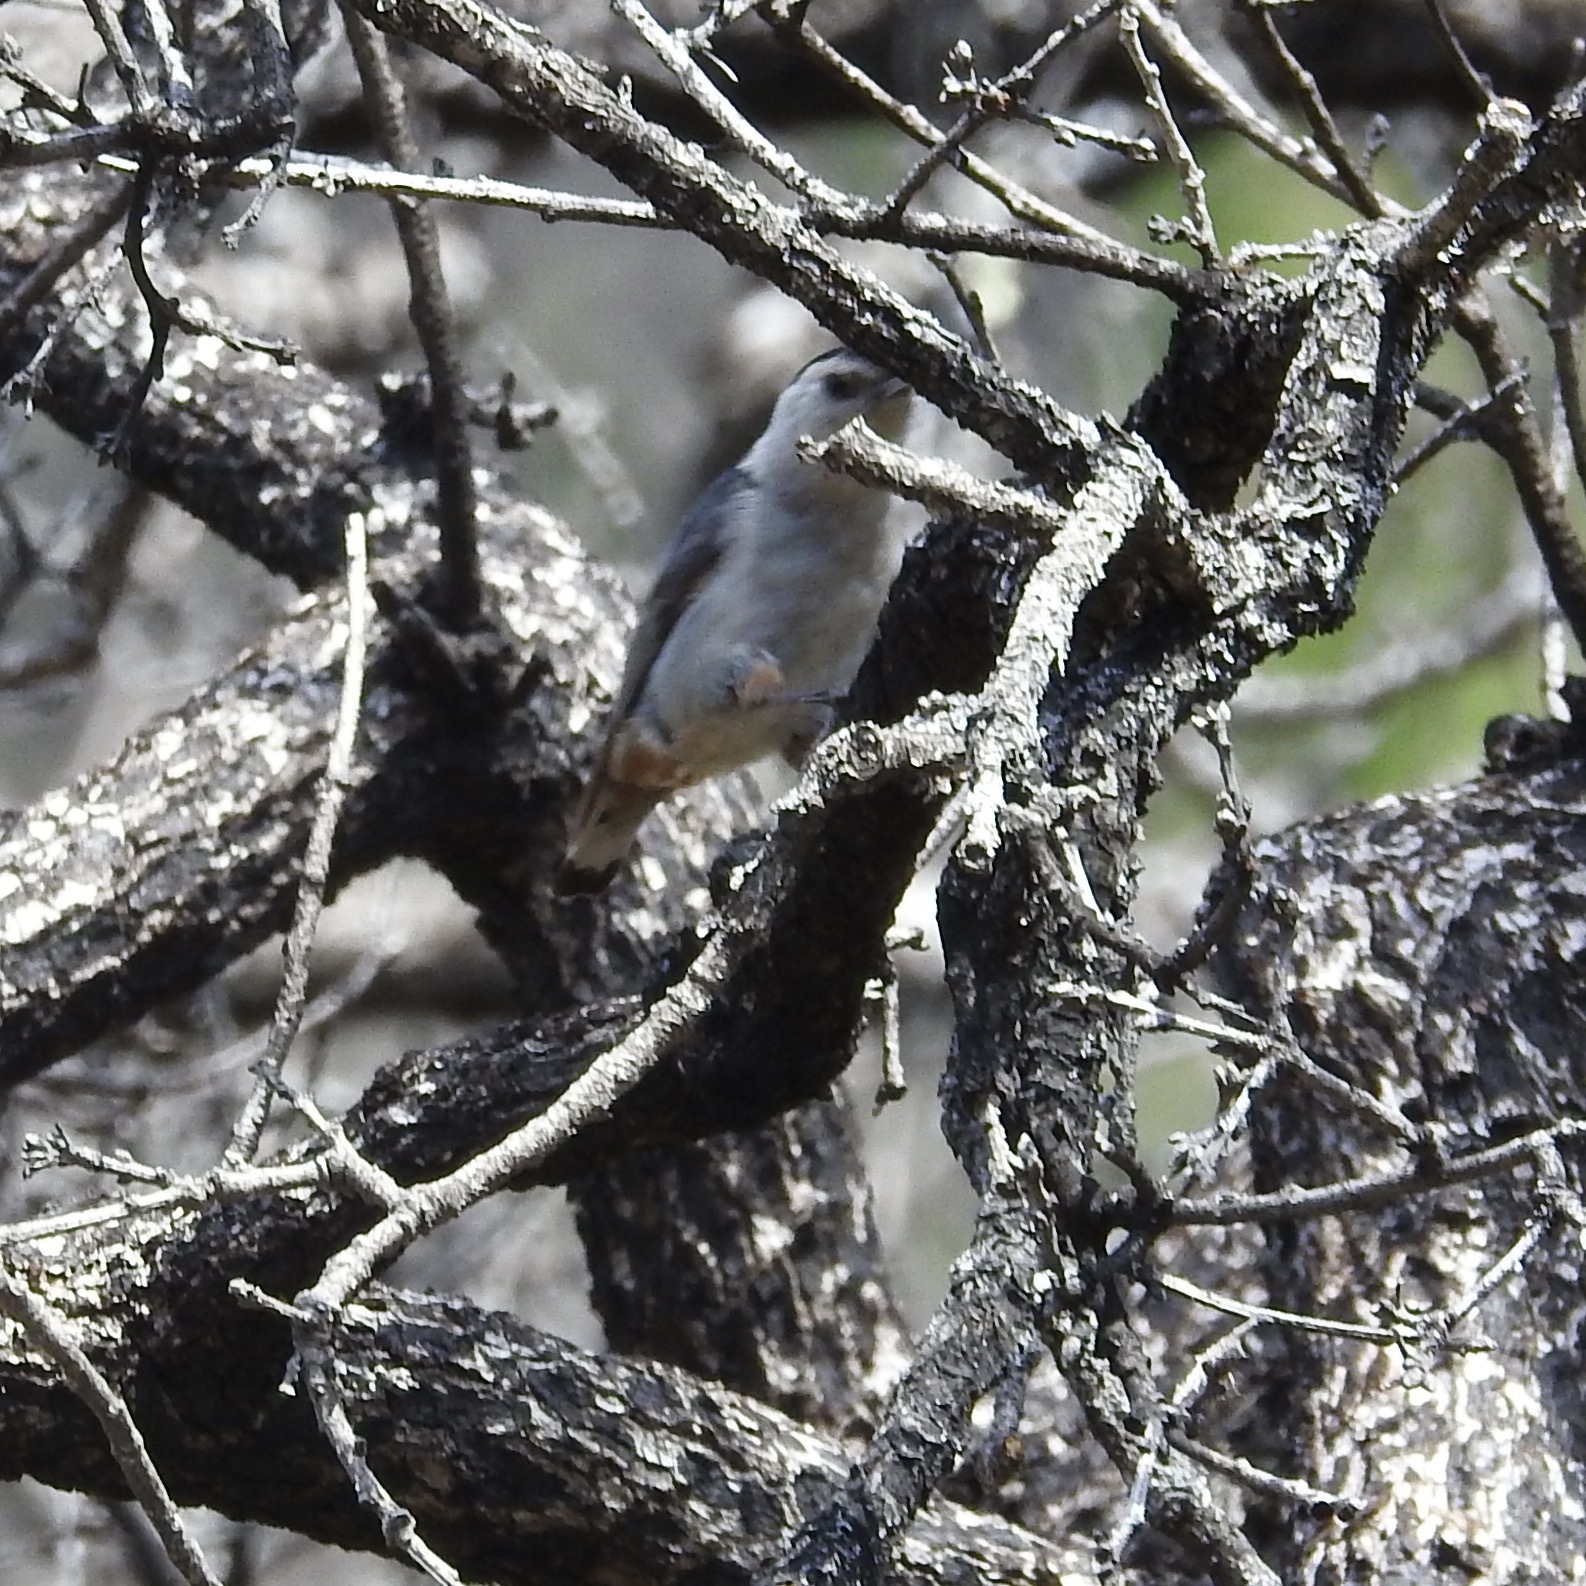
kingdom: Animalia
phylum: Chordata
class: Aves
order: Passeriformes
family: Sittidae
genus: Sitta
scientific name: Sitta carolinensis
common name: White-breasted nuthatch
